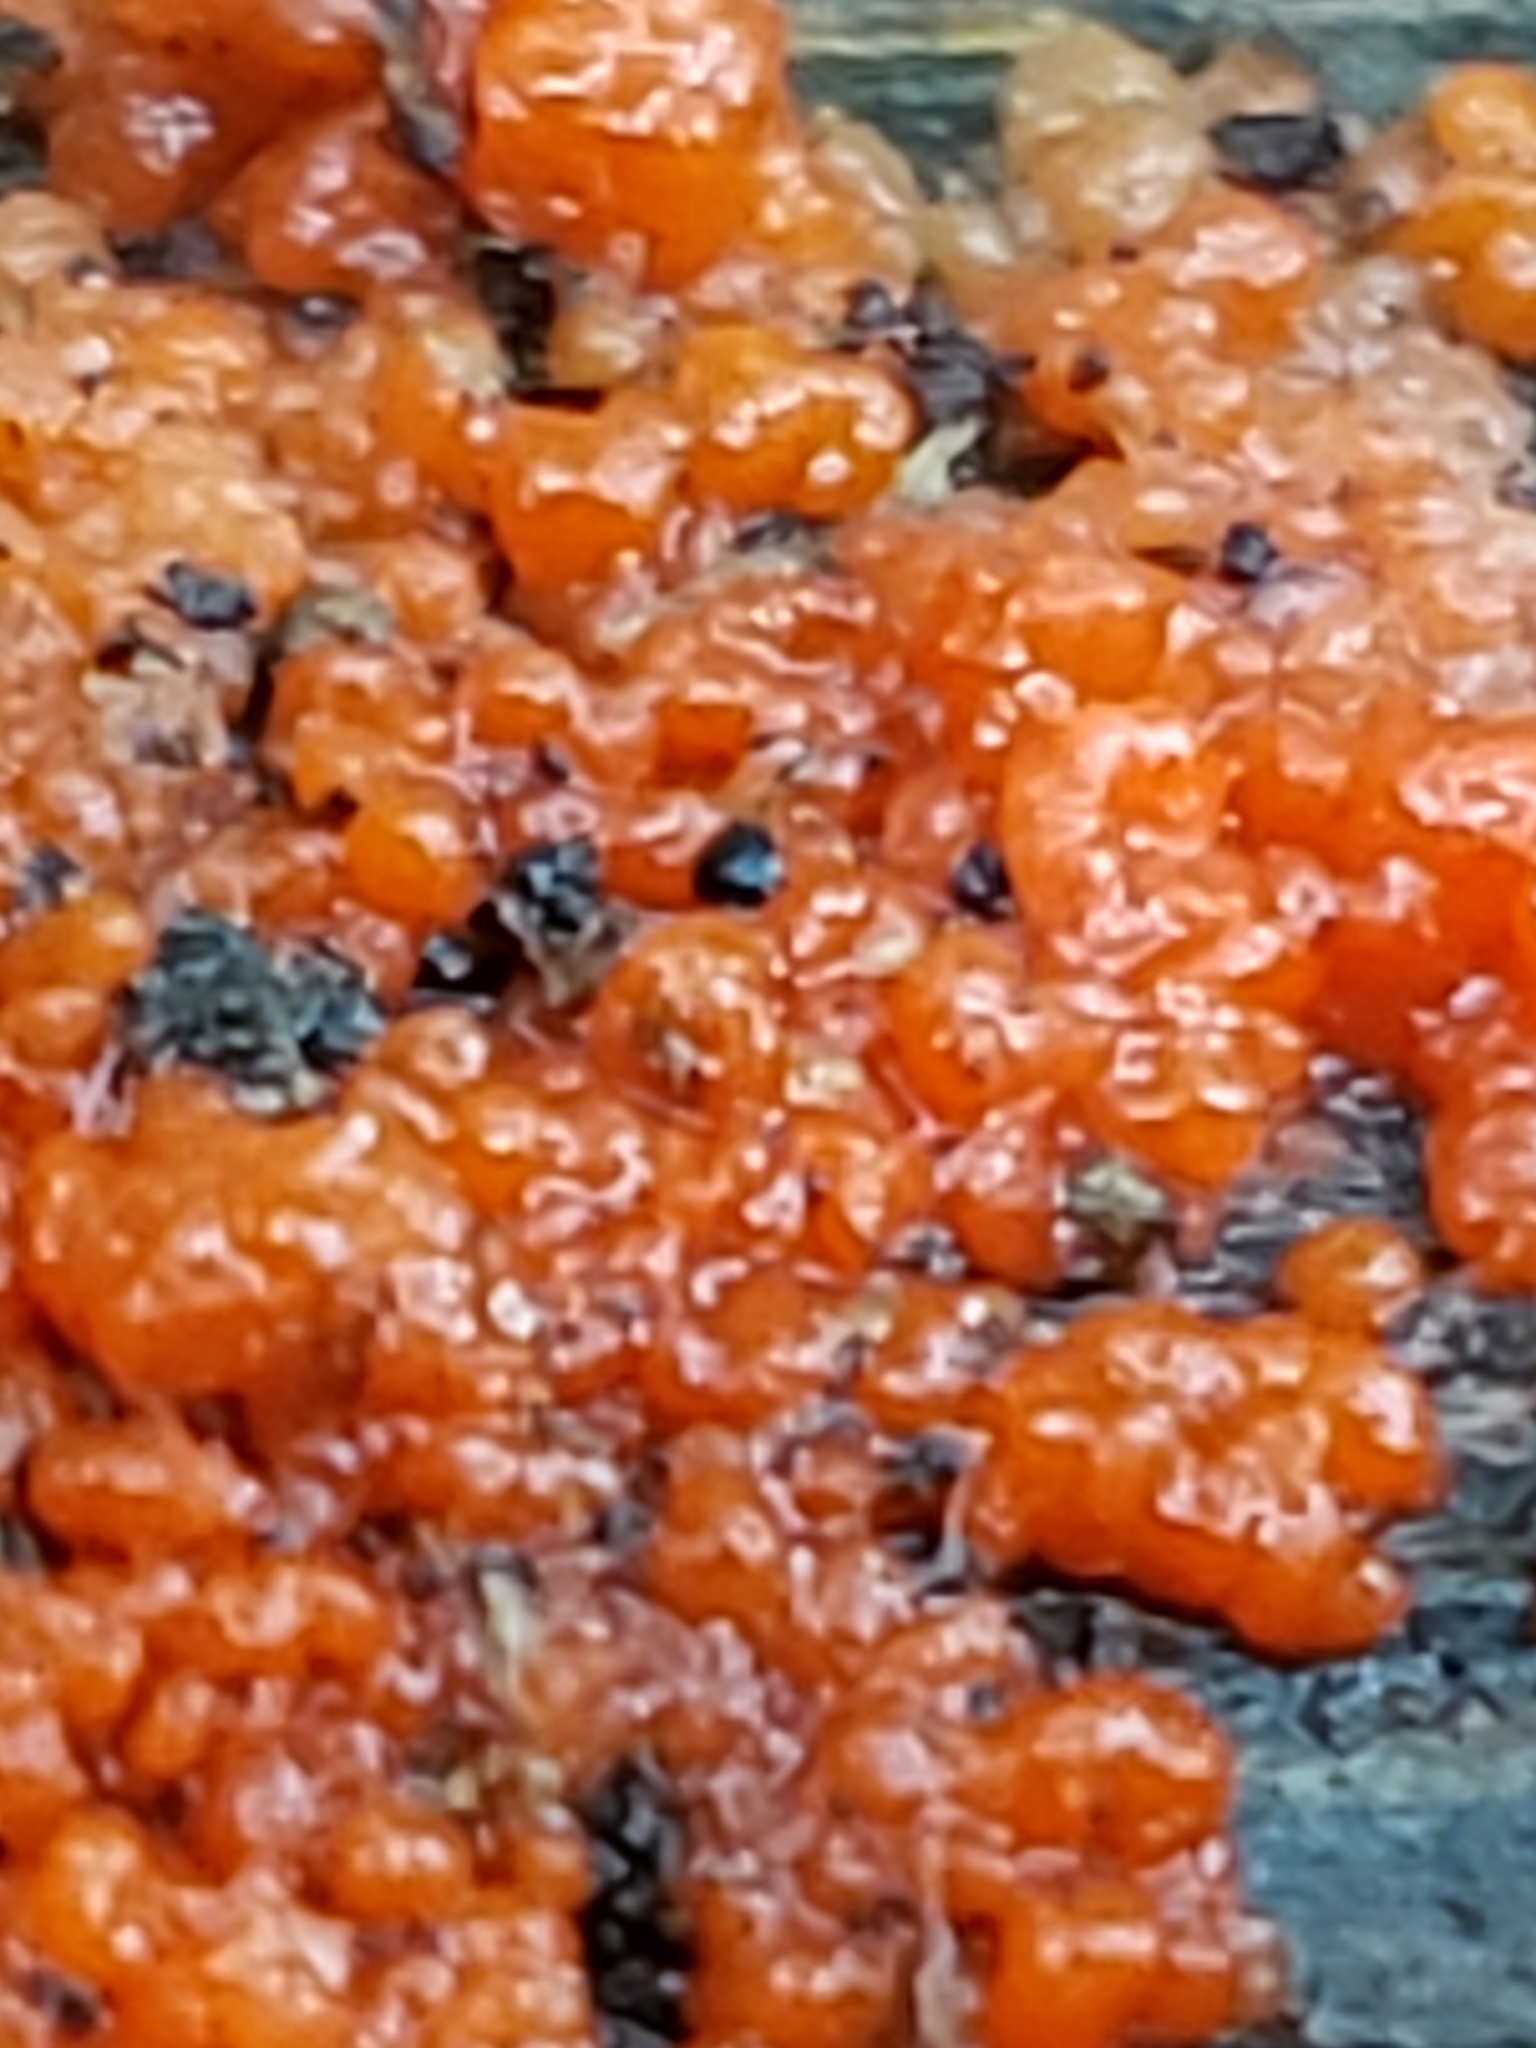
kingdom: Fungi
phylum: Basidiomycota
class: Agaricomycetes
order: Cantharellales
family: Tulasnellaceae
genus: Tulasnella
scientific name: Tulasnella aurantiaca
